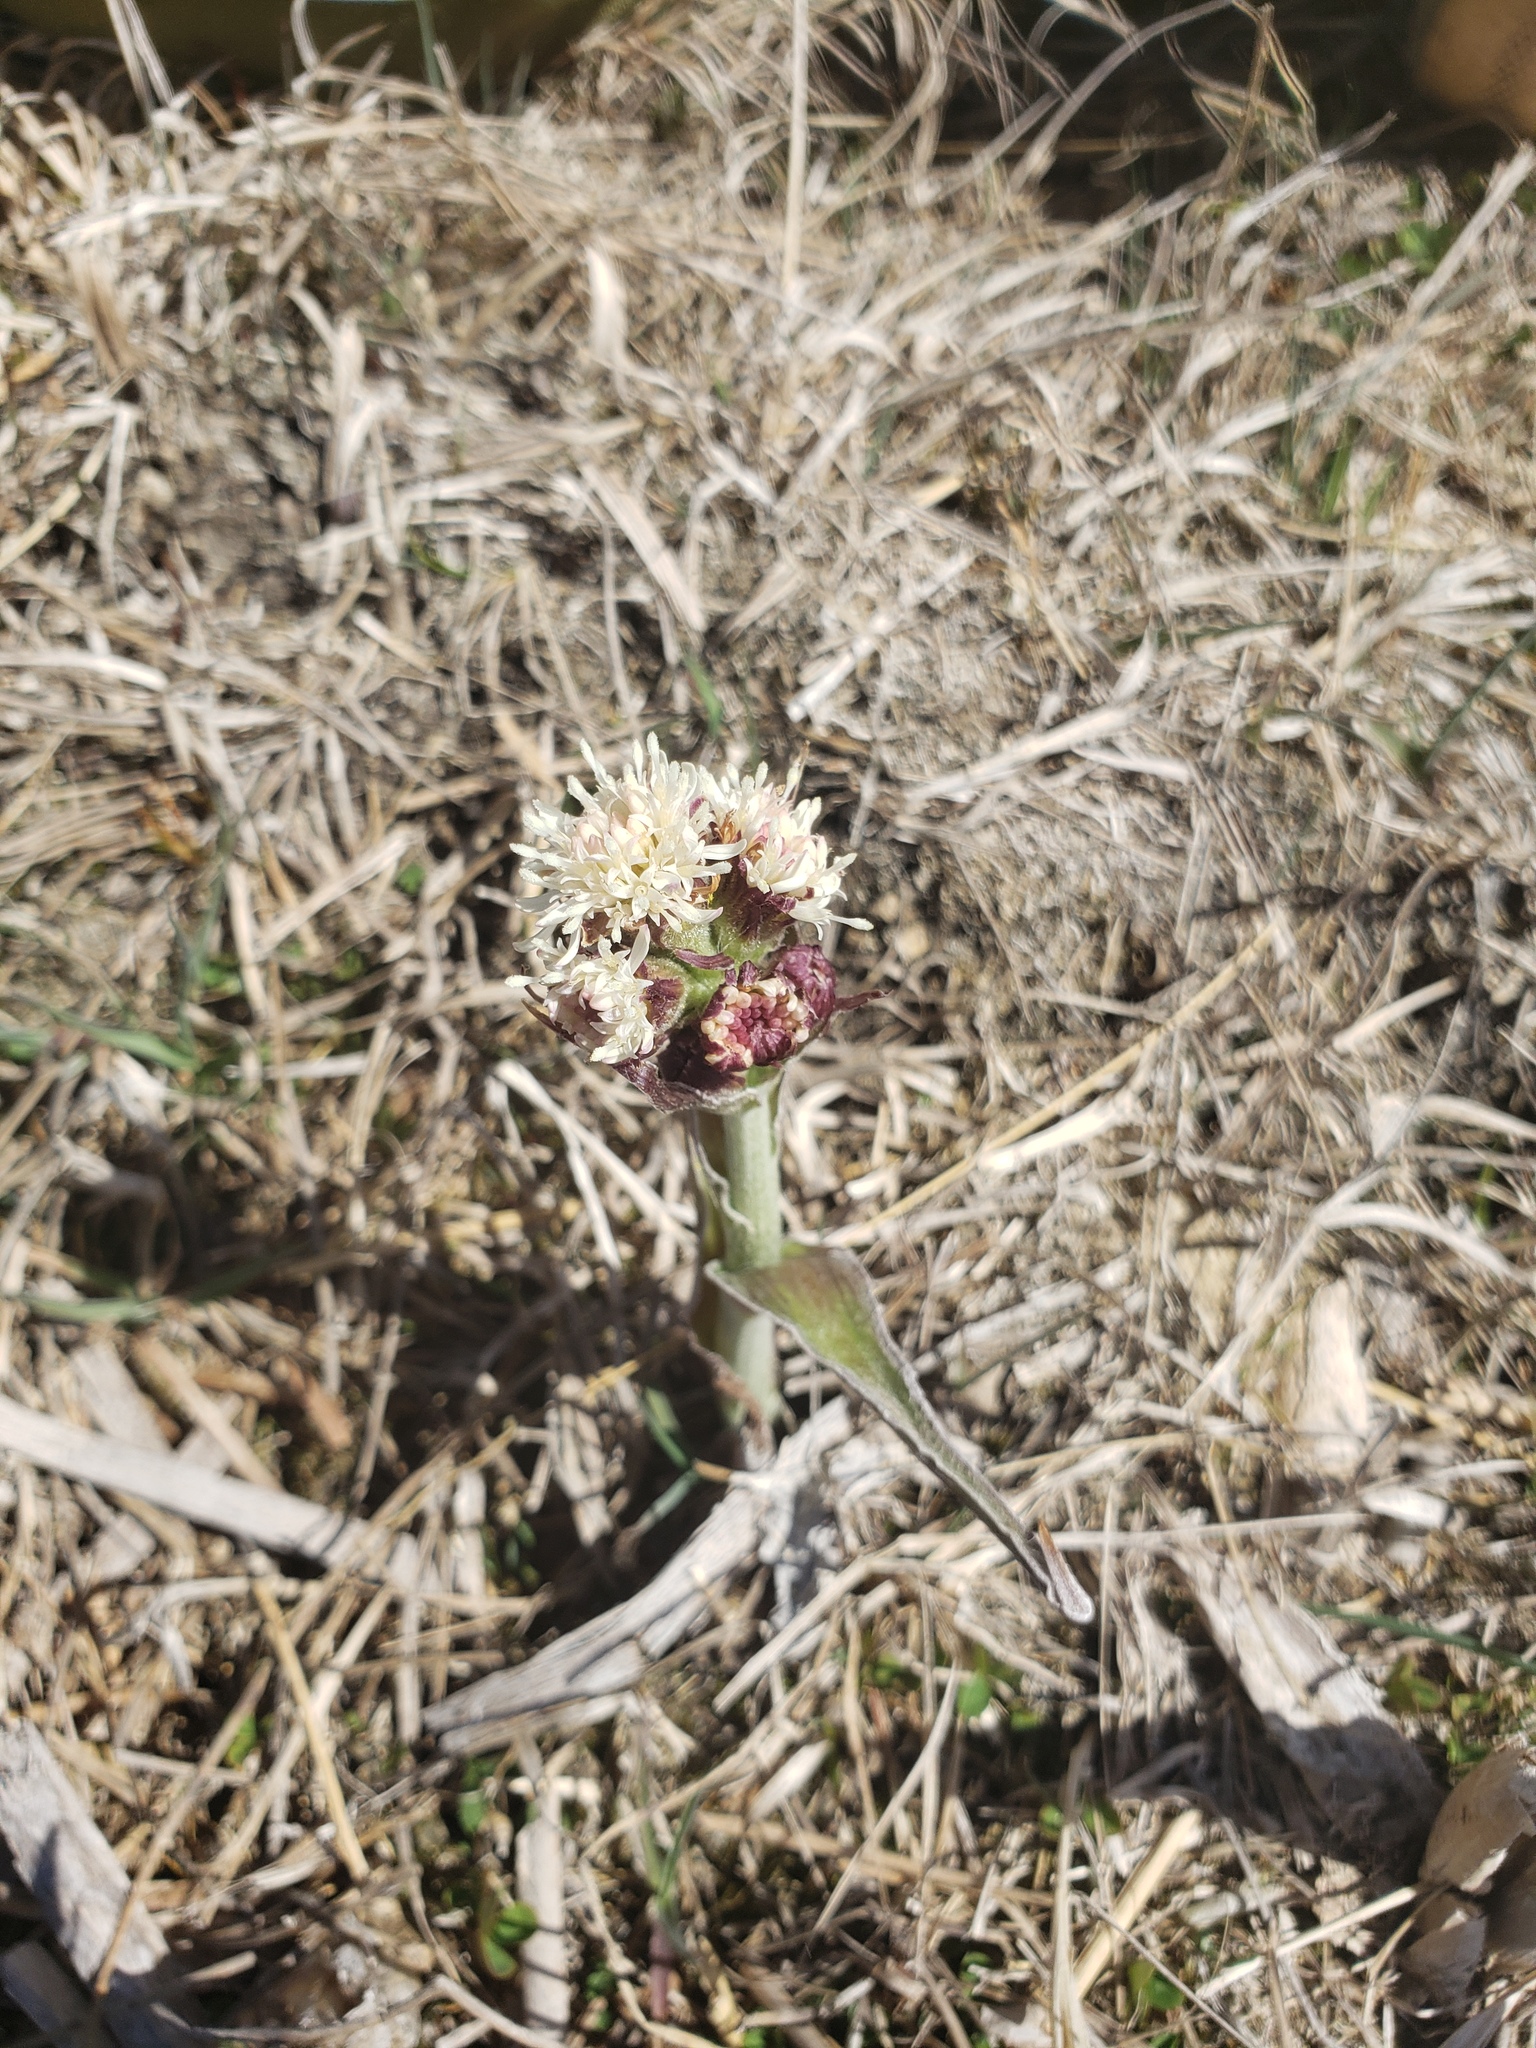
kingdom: Plantae
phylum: Tracheophyta
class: Magnoliopsida
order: Asterales
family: Asteraceae
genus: Petasites
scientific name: Petasites frigidus
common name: Arctic butterbur
